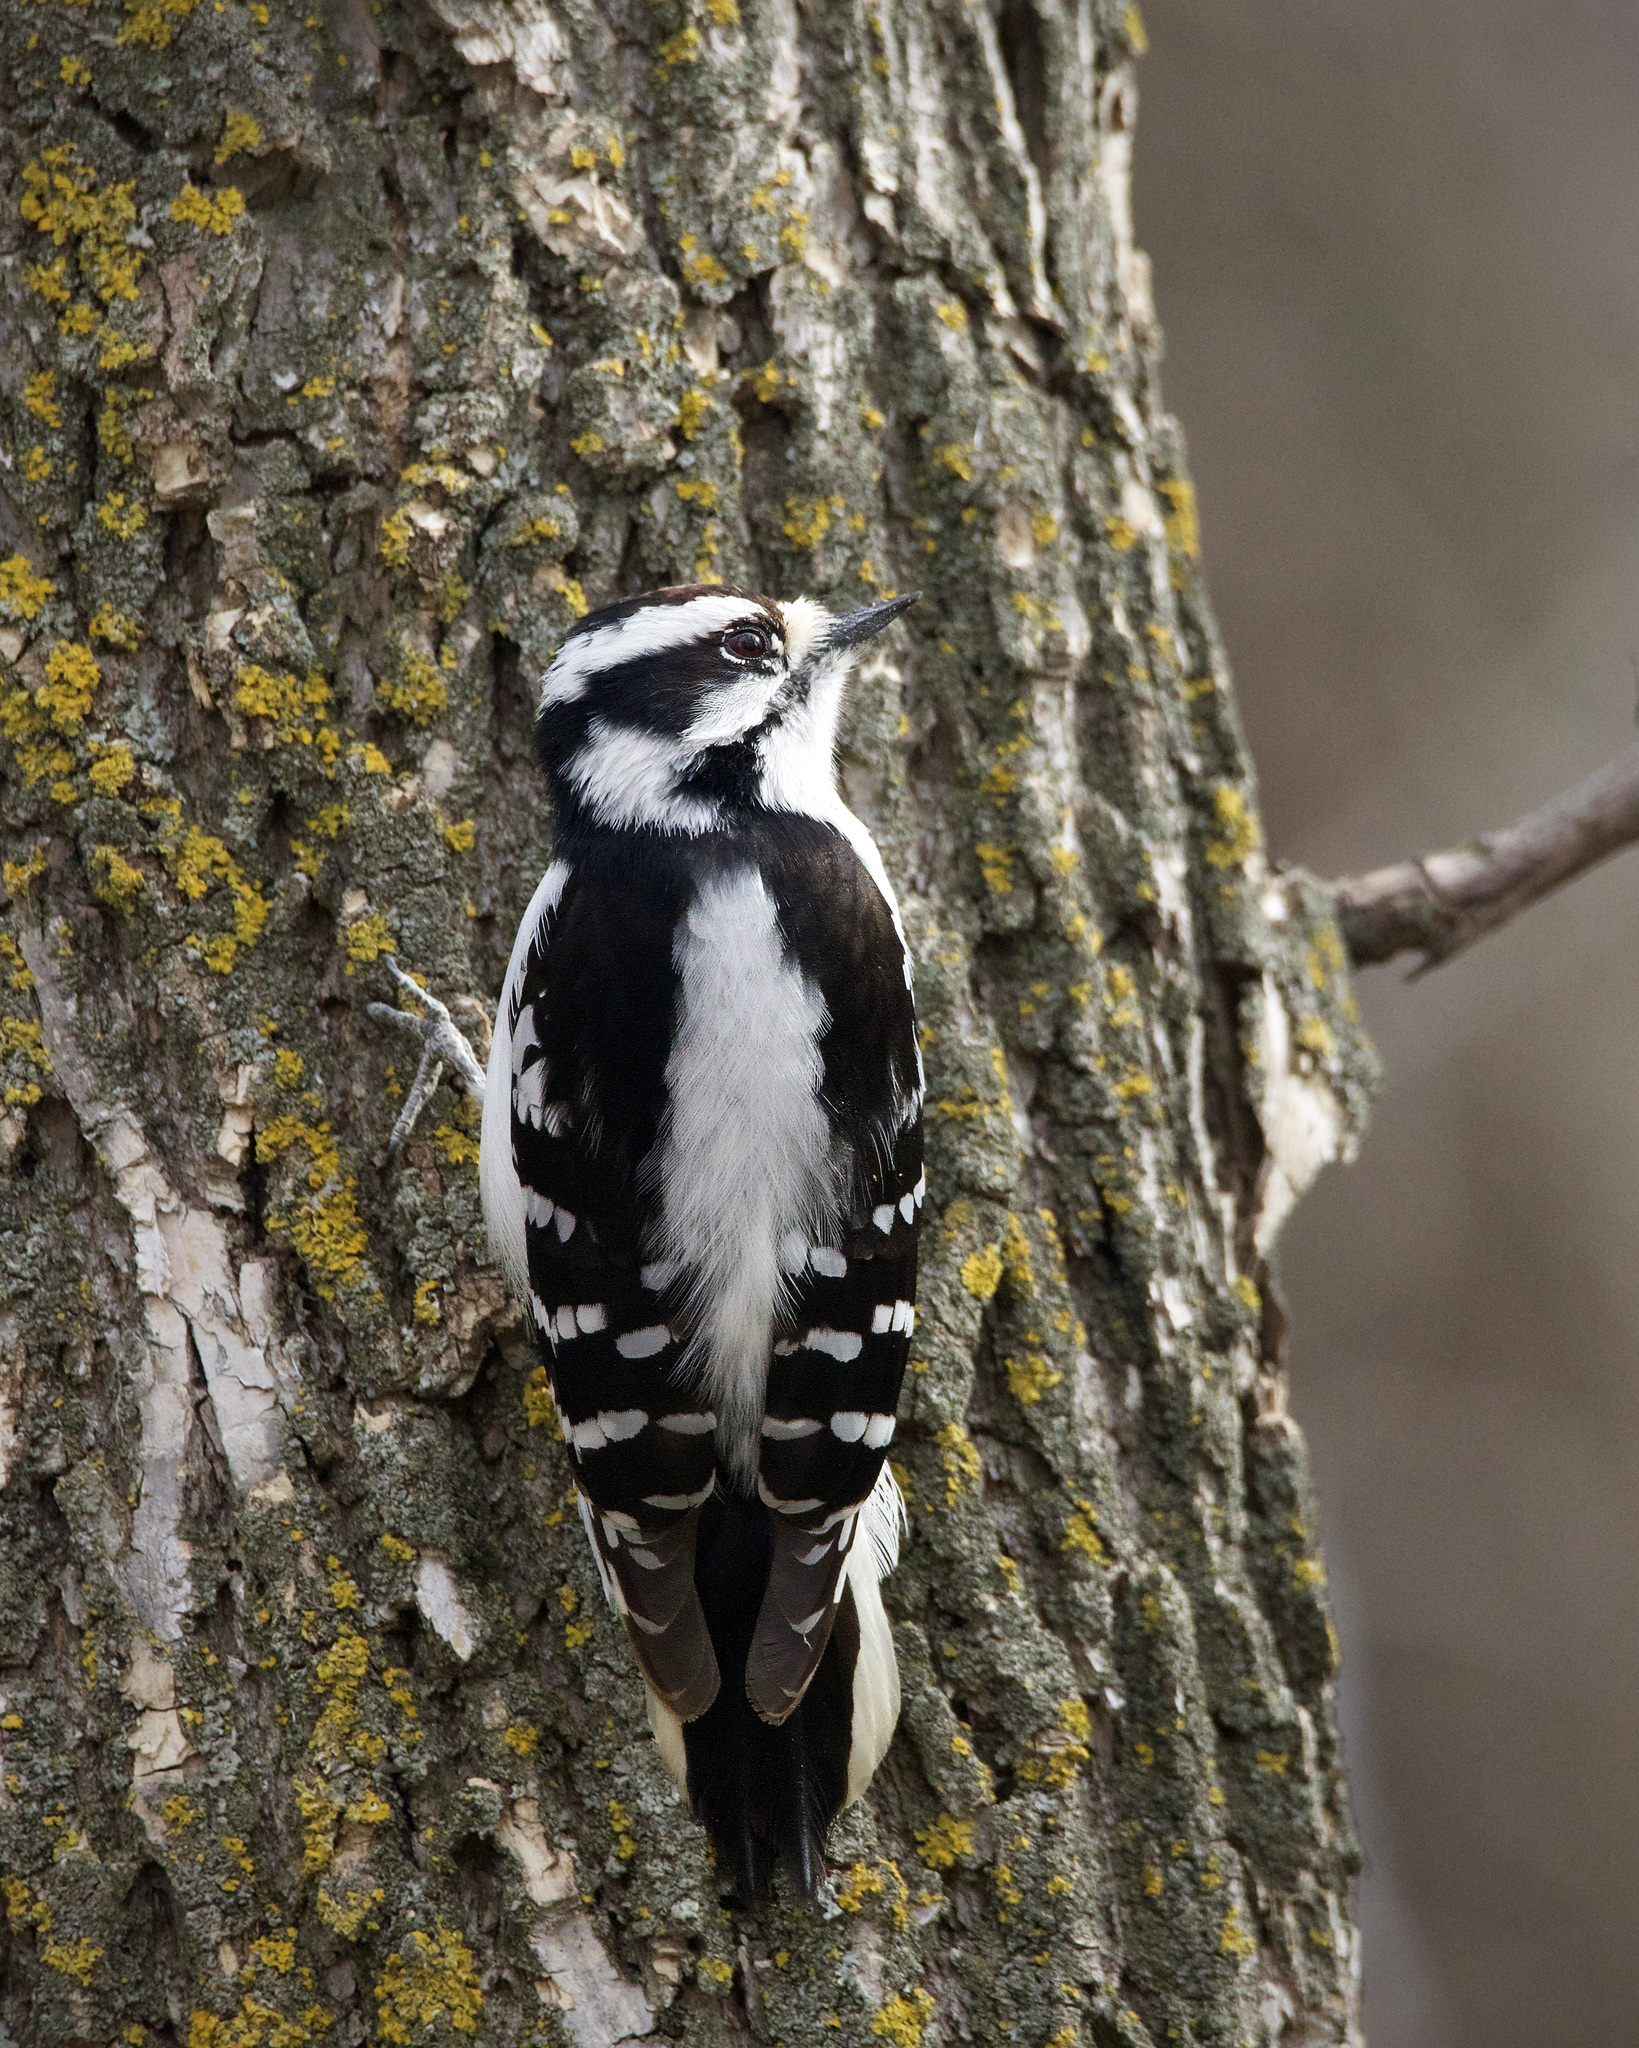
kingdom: Animalia
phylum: Chordata
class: Aves
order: Piciformes
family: Picidae
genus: Dryobates
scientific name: Dryobates pubescens
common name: Downy woodpecker
